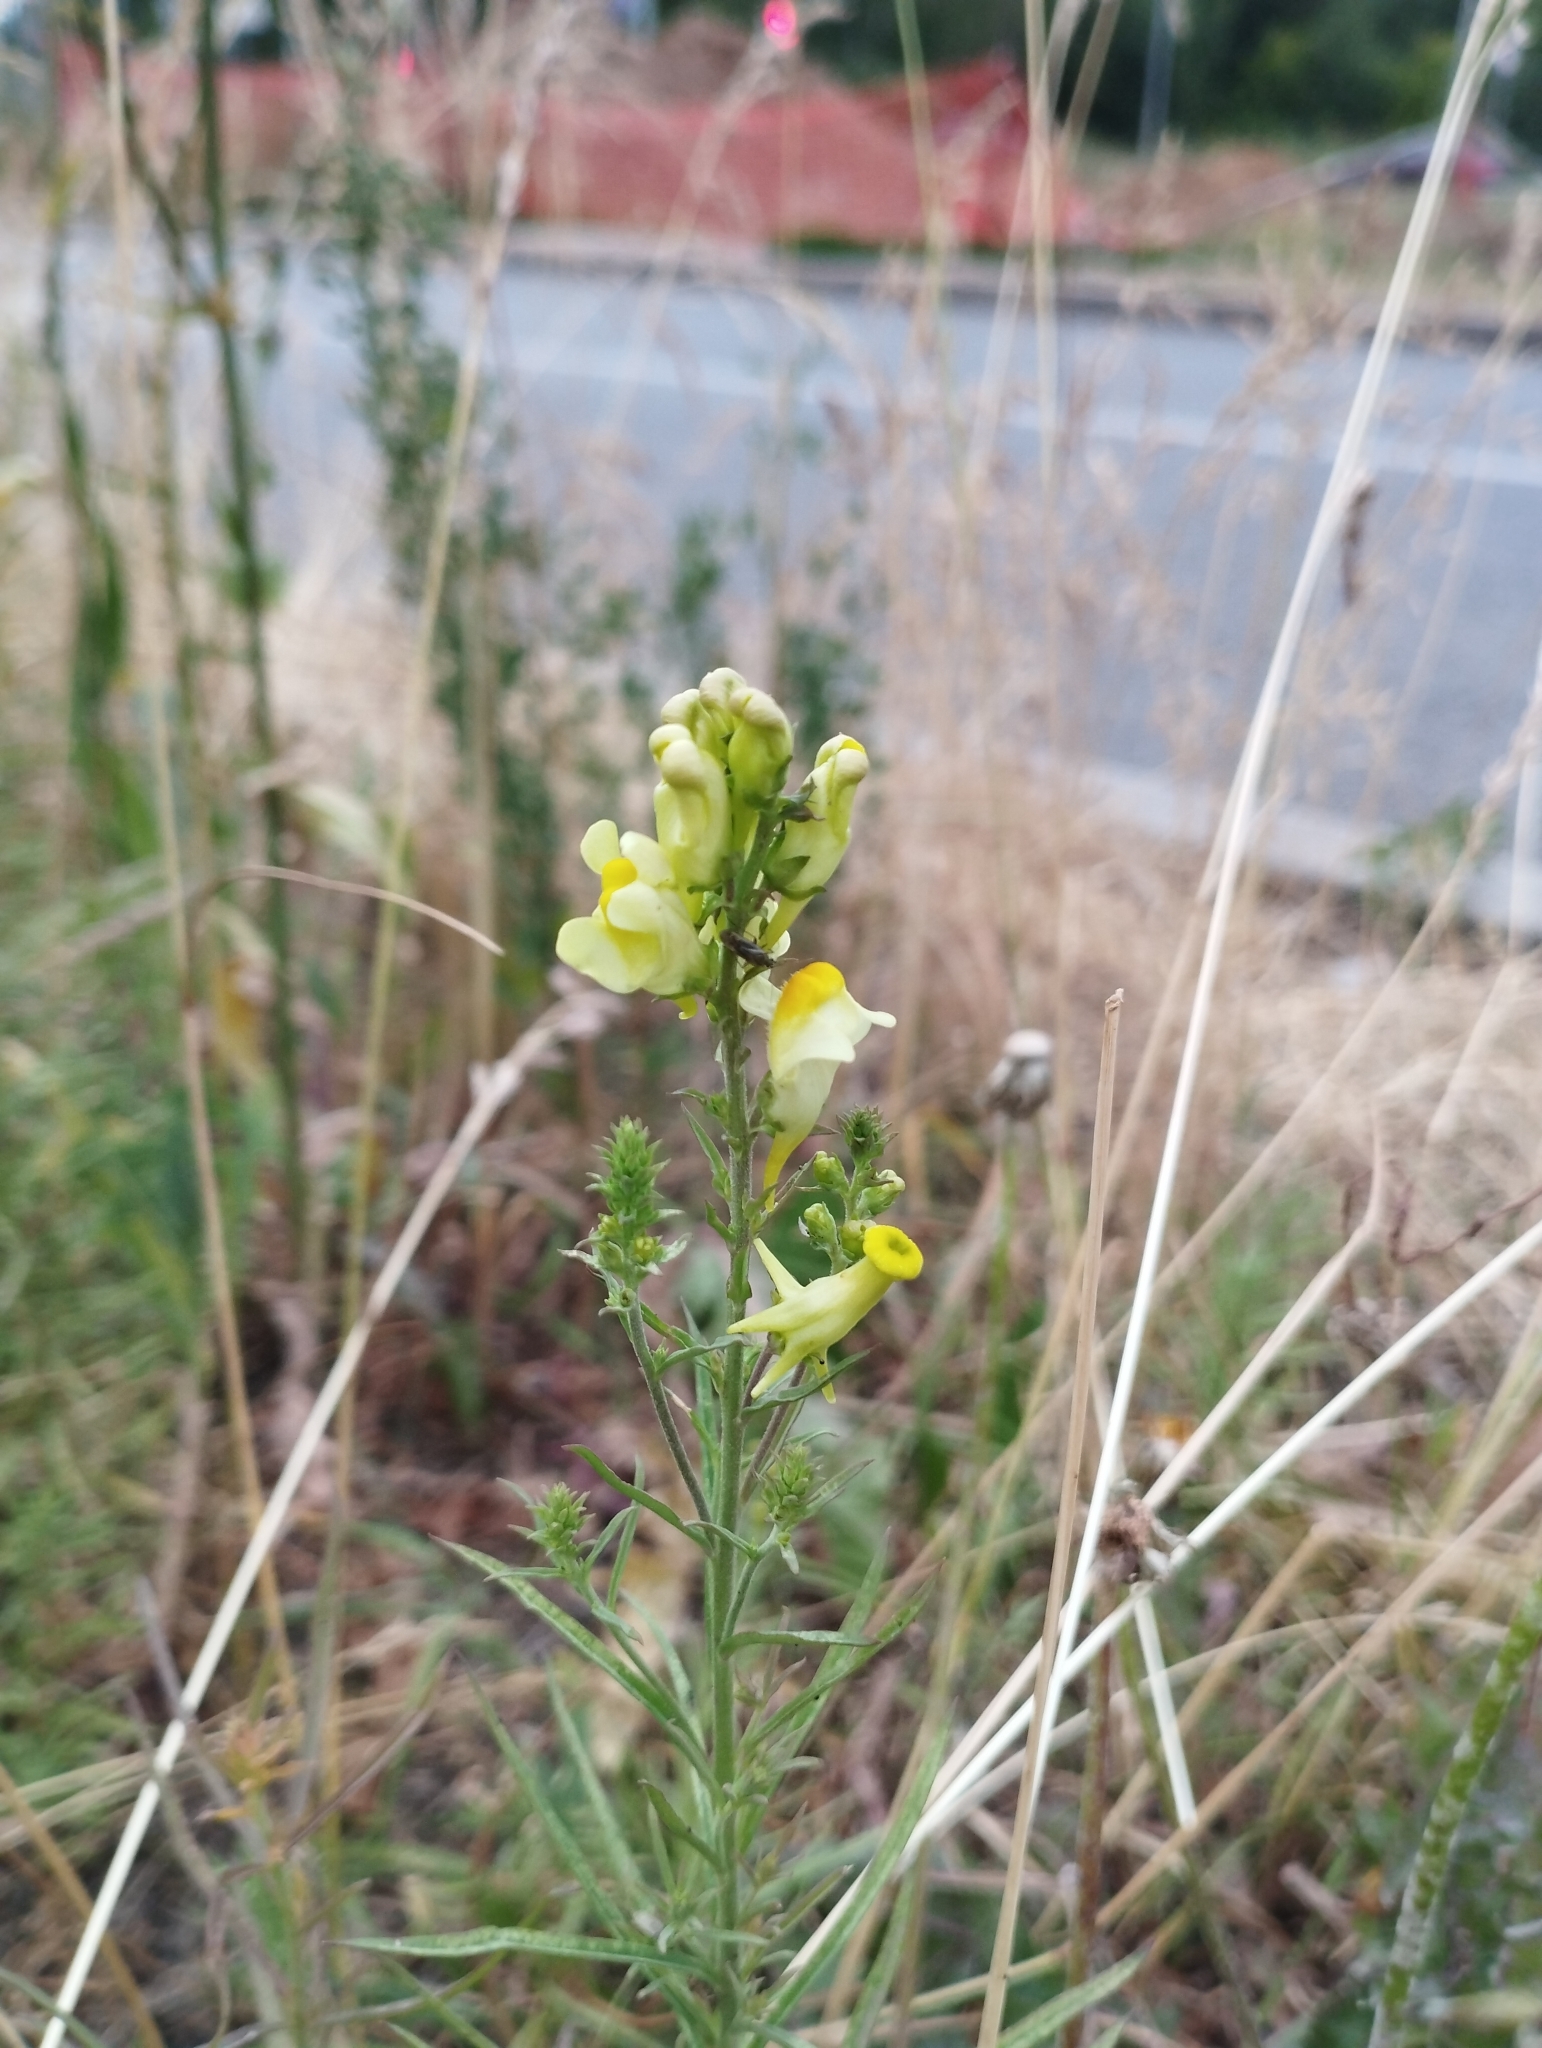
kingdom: Plantae
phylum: Tracheophyta
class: Magnoliopsida
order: Lamiales
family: Plantaginaceae
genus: Linaria
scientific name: Linaria vulgaris
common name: Butter and eggs
